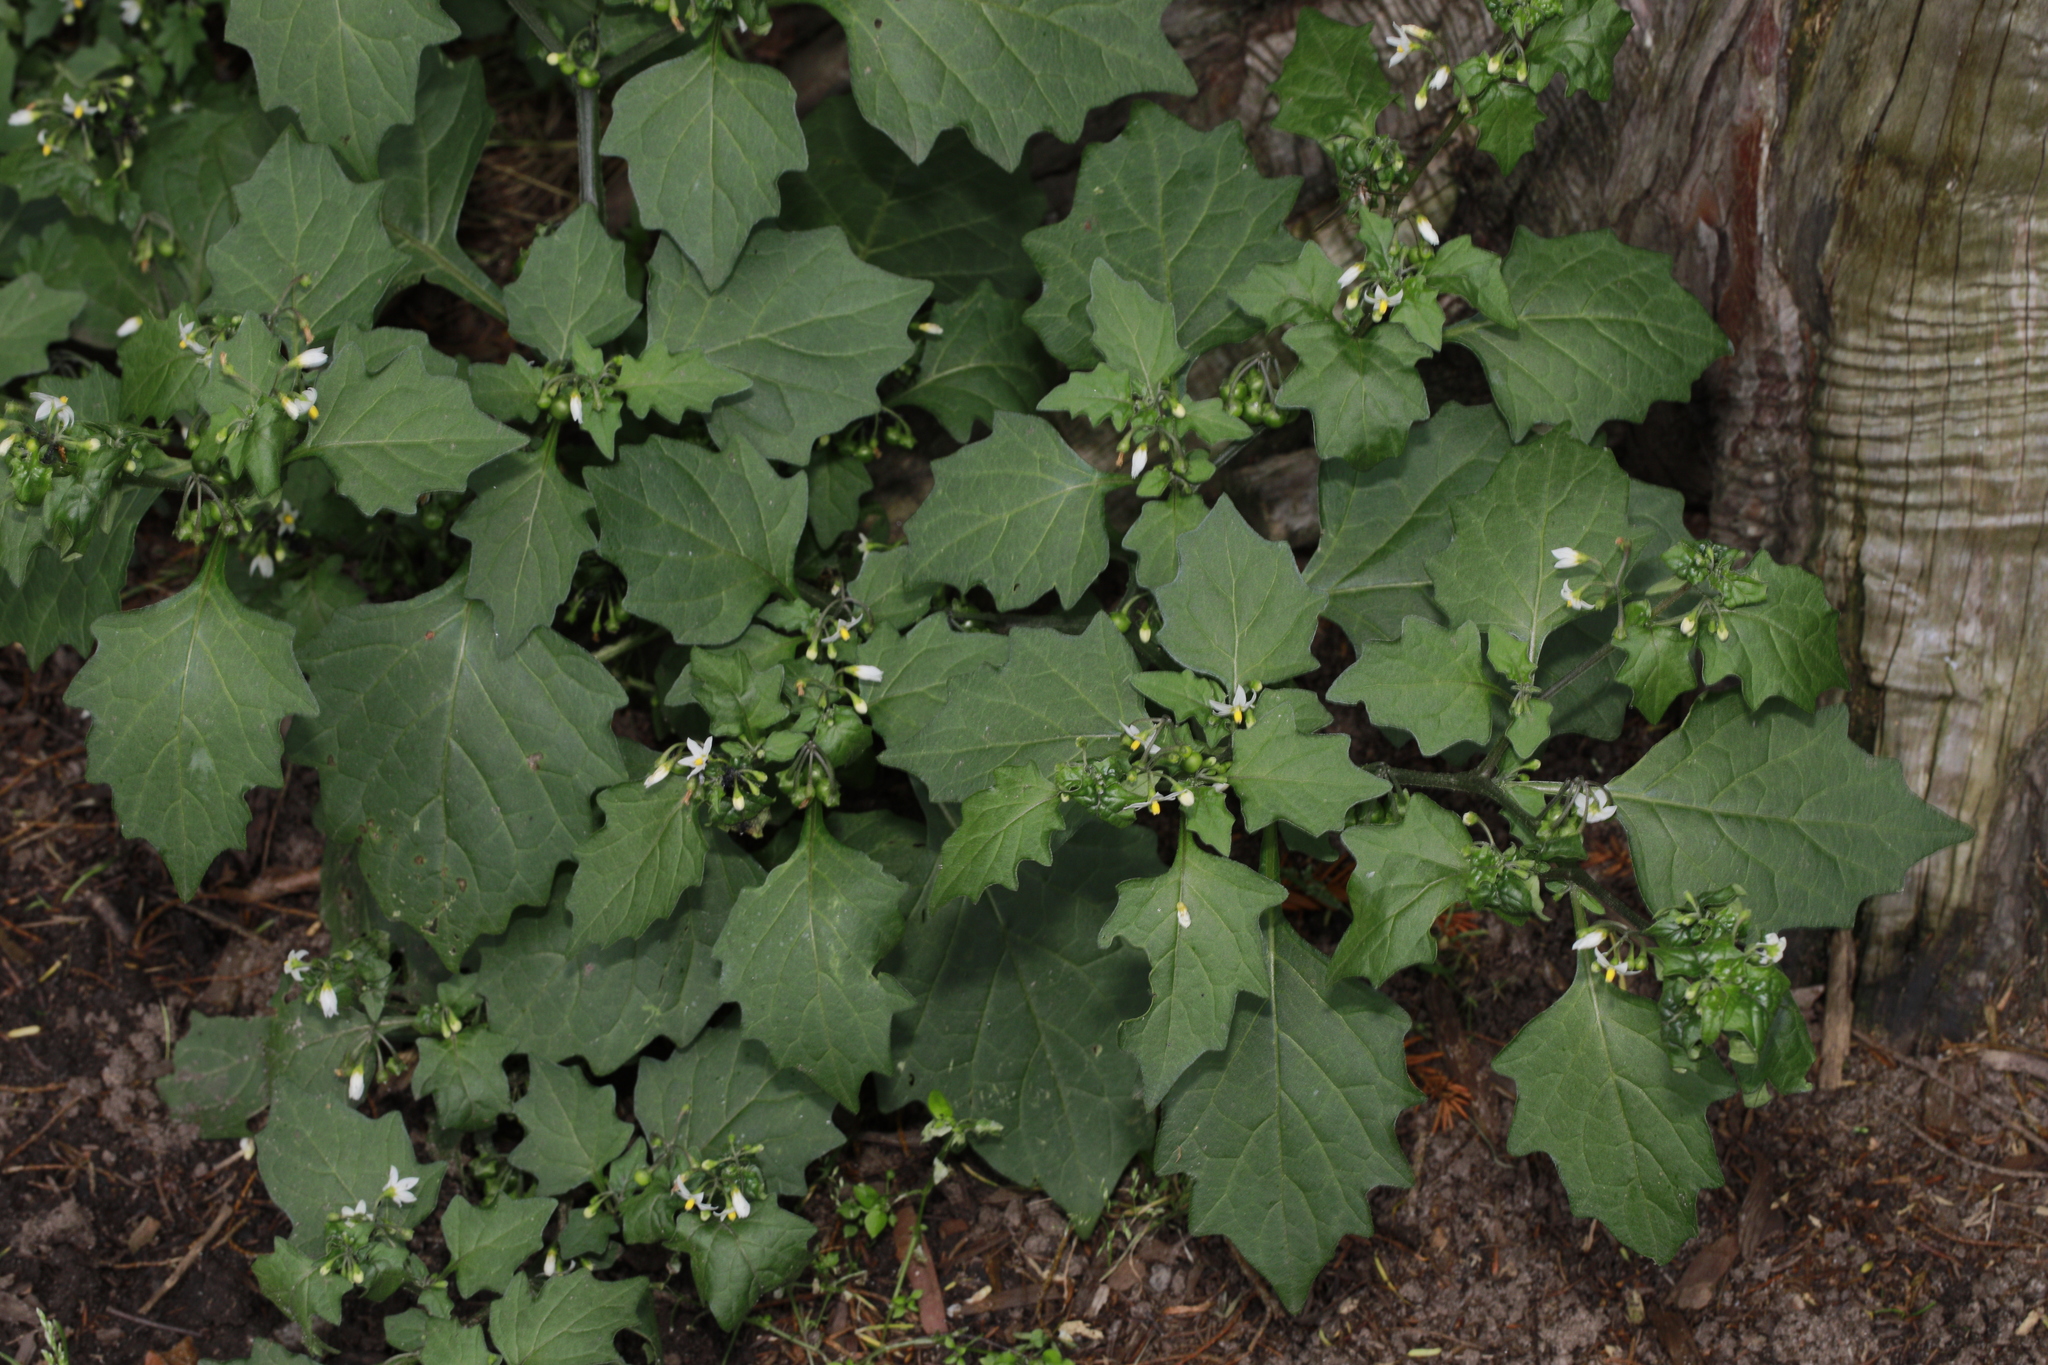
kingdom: Plantae
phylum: Tracheophyta
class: Magnoliopsida
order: Solanales
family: Solanaceae
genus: Solanum
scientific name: Solanum nigrum
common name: Black nightshade
